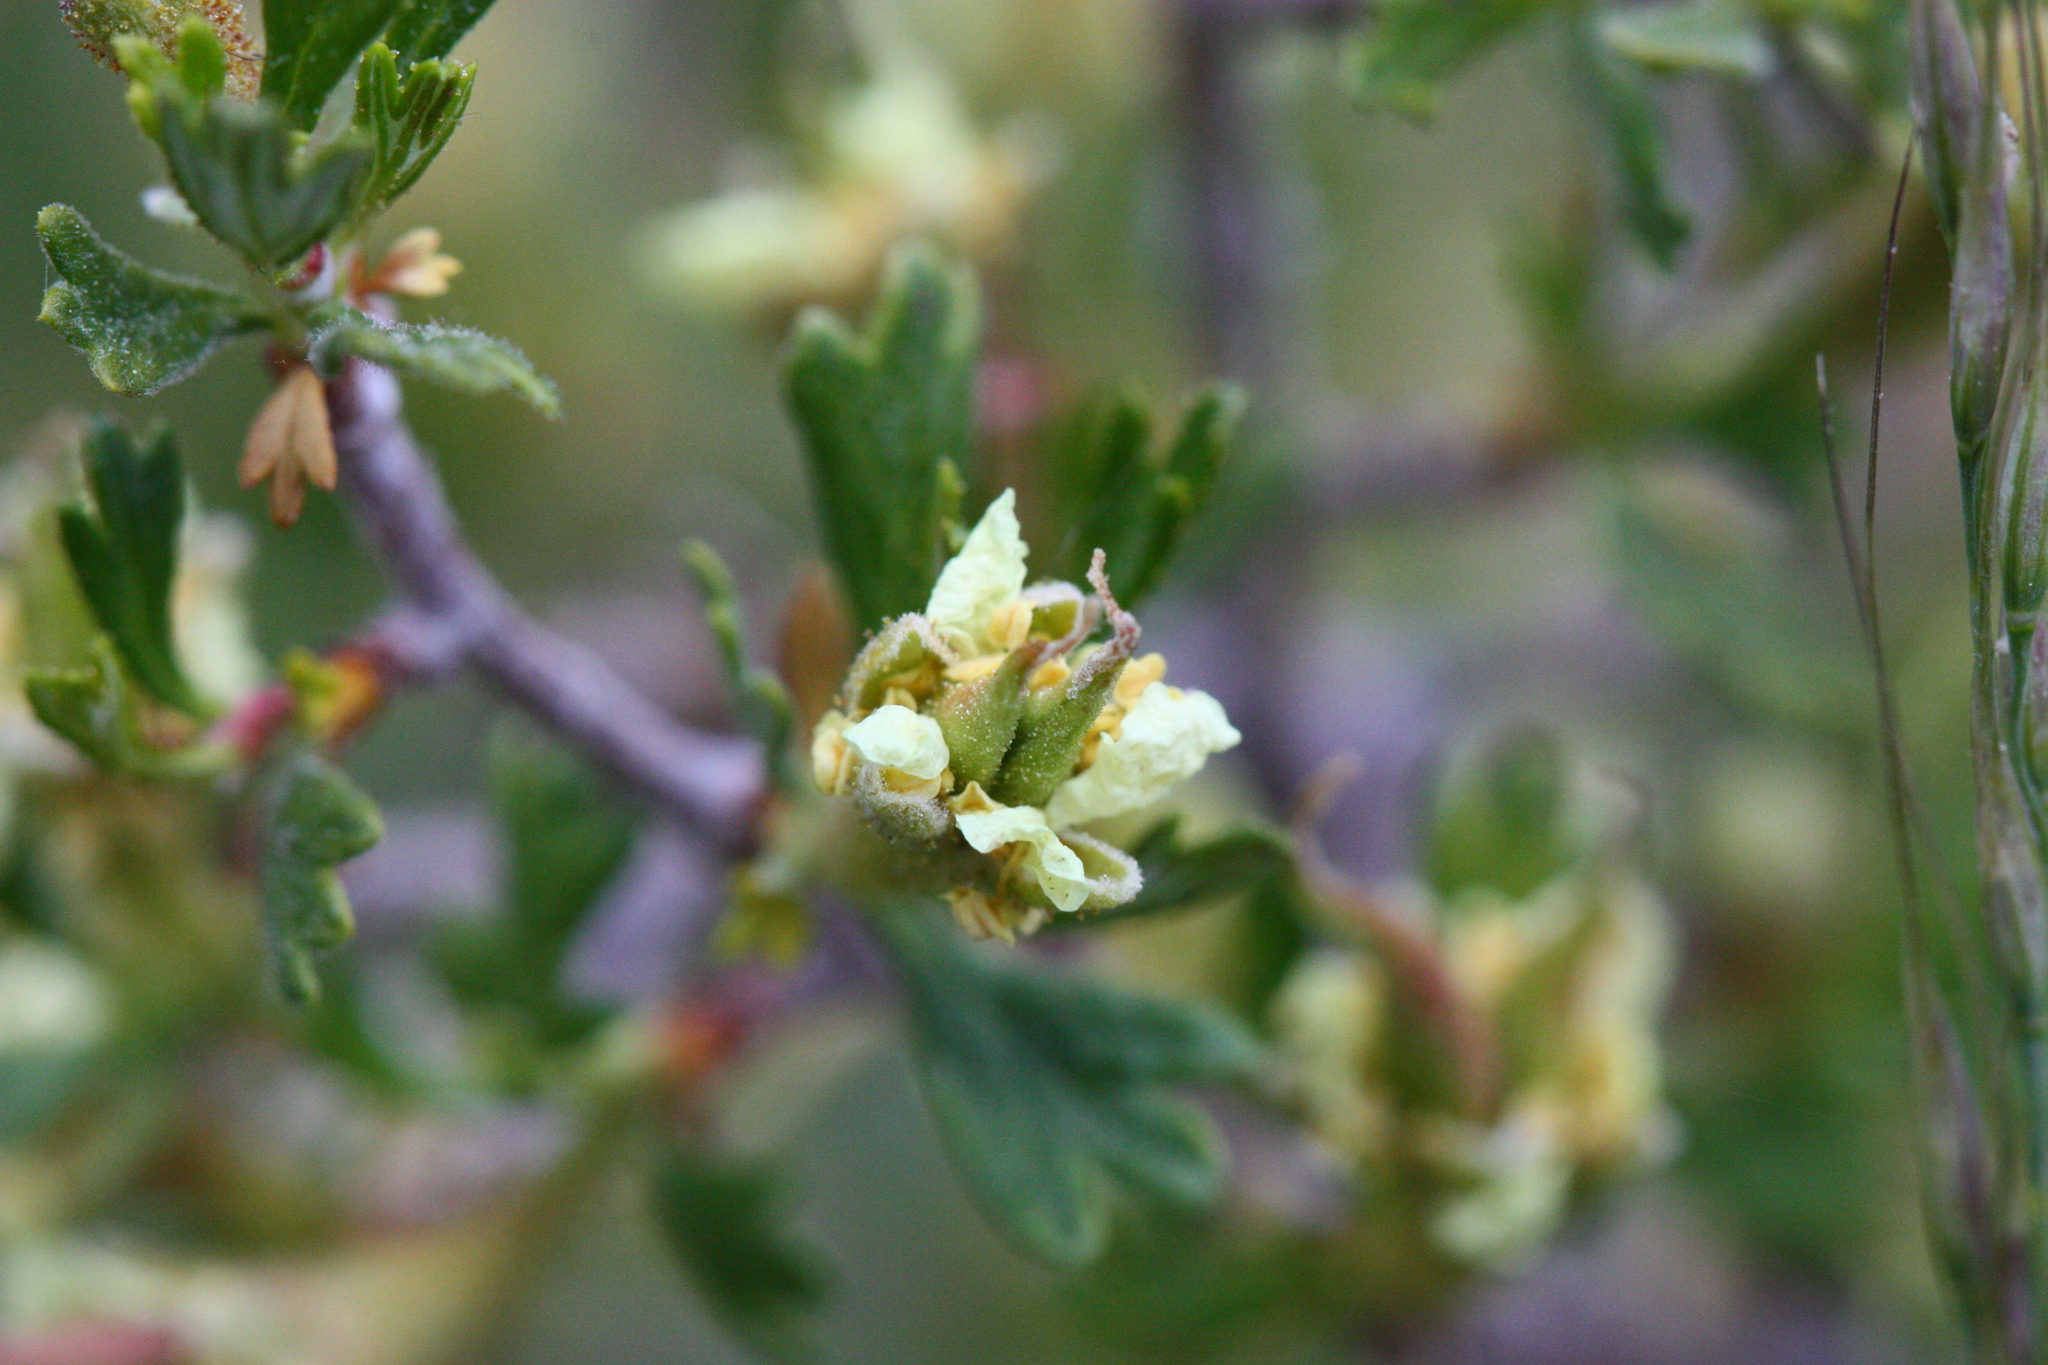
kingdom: Plantae
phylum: Tracheophyta
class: Magnoliopsida
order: Rosales
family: Rosaceae
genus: Purshia
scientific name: Purshia tridentata
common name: Antelope bitterbrush
